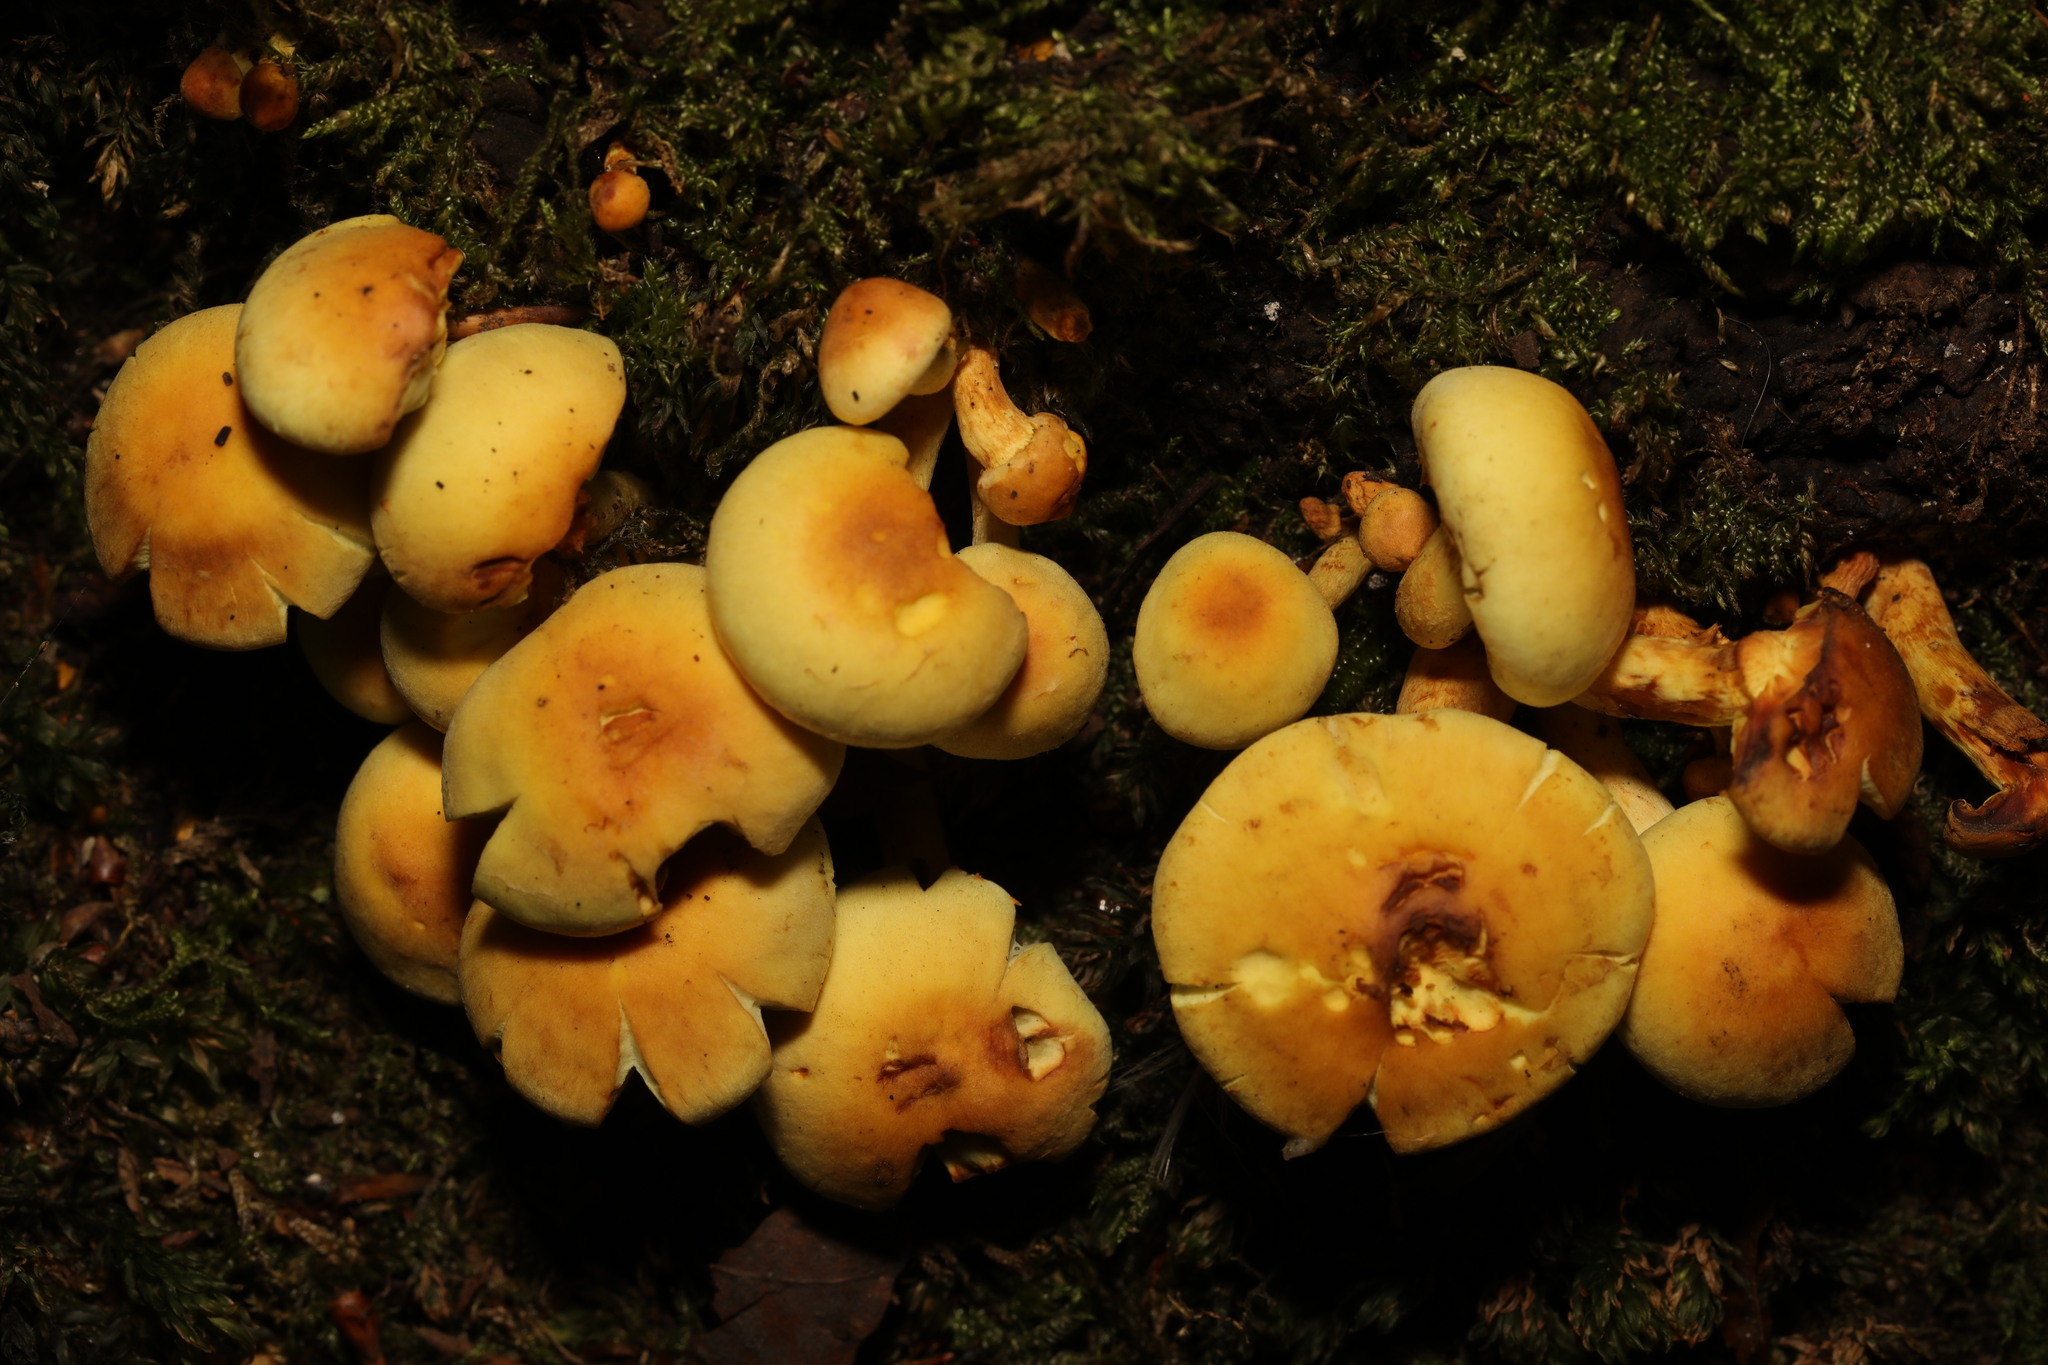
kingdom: Fungi
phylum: Basidiomycota
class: Agaricomycetes
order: Agaricales
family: Strophariaceae
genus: Hypholoma
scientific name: Hypholoma fasciculare
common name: Sulphur tuft
